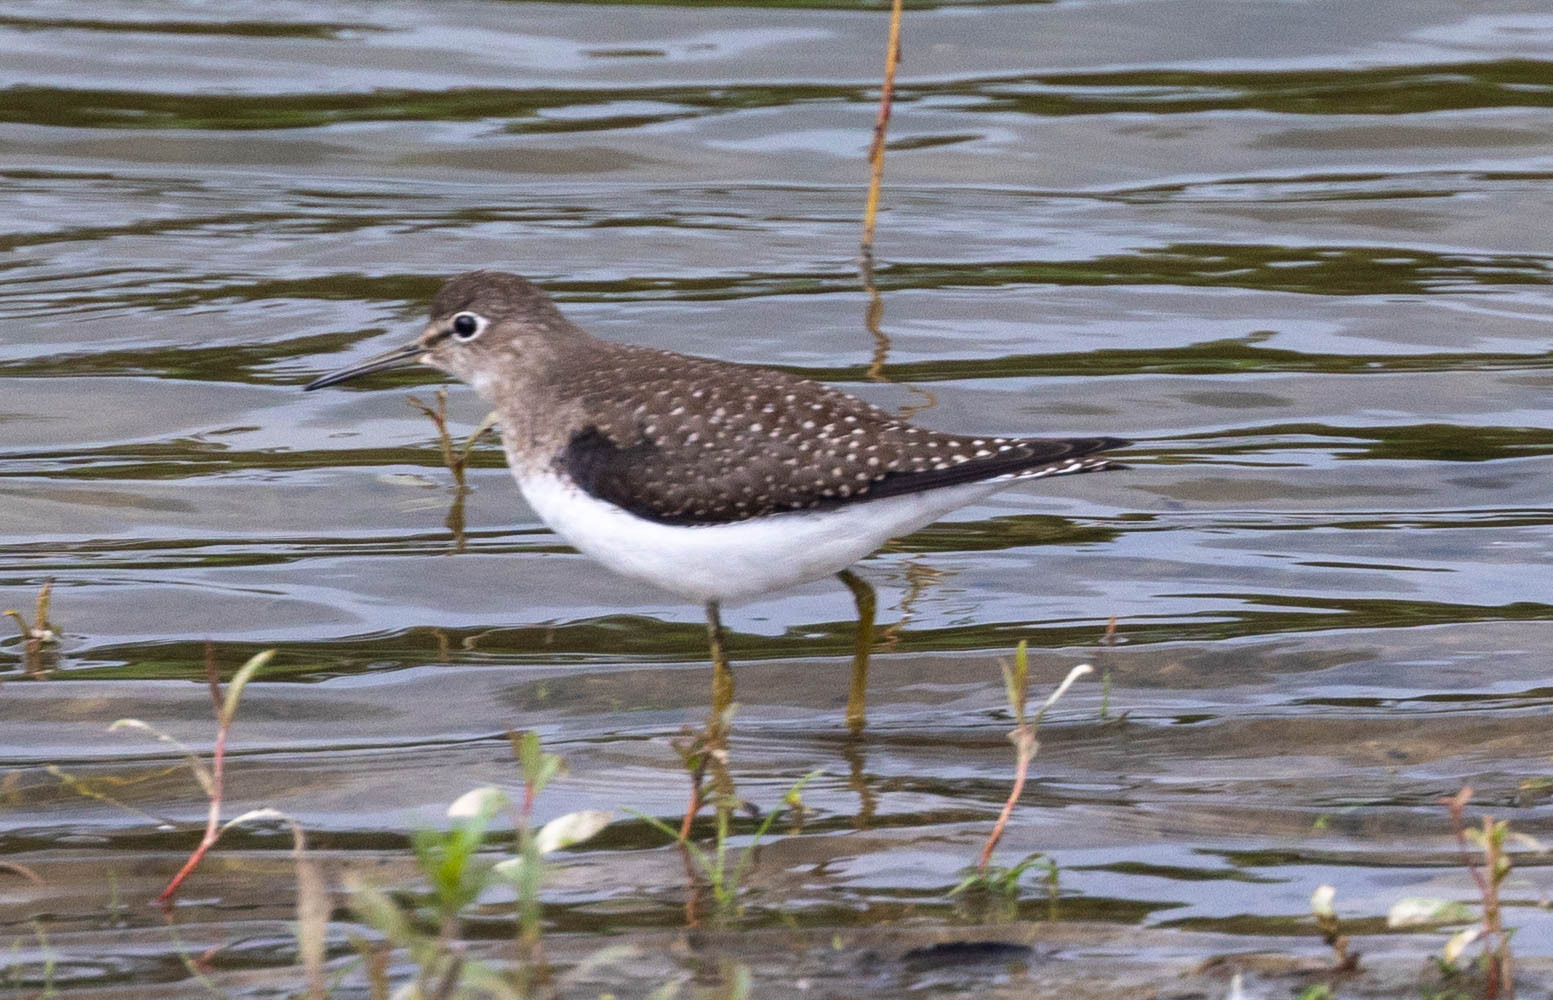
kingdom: Animalia
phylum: Chordata
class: Aves
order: Charadriiformes
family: Scolopacidae
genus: Tringa
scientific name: Tringa solitaria
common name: Solitary sandpiper
